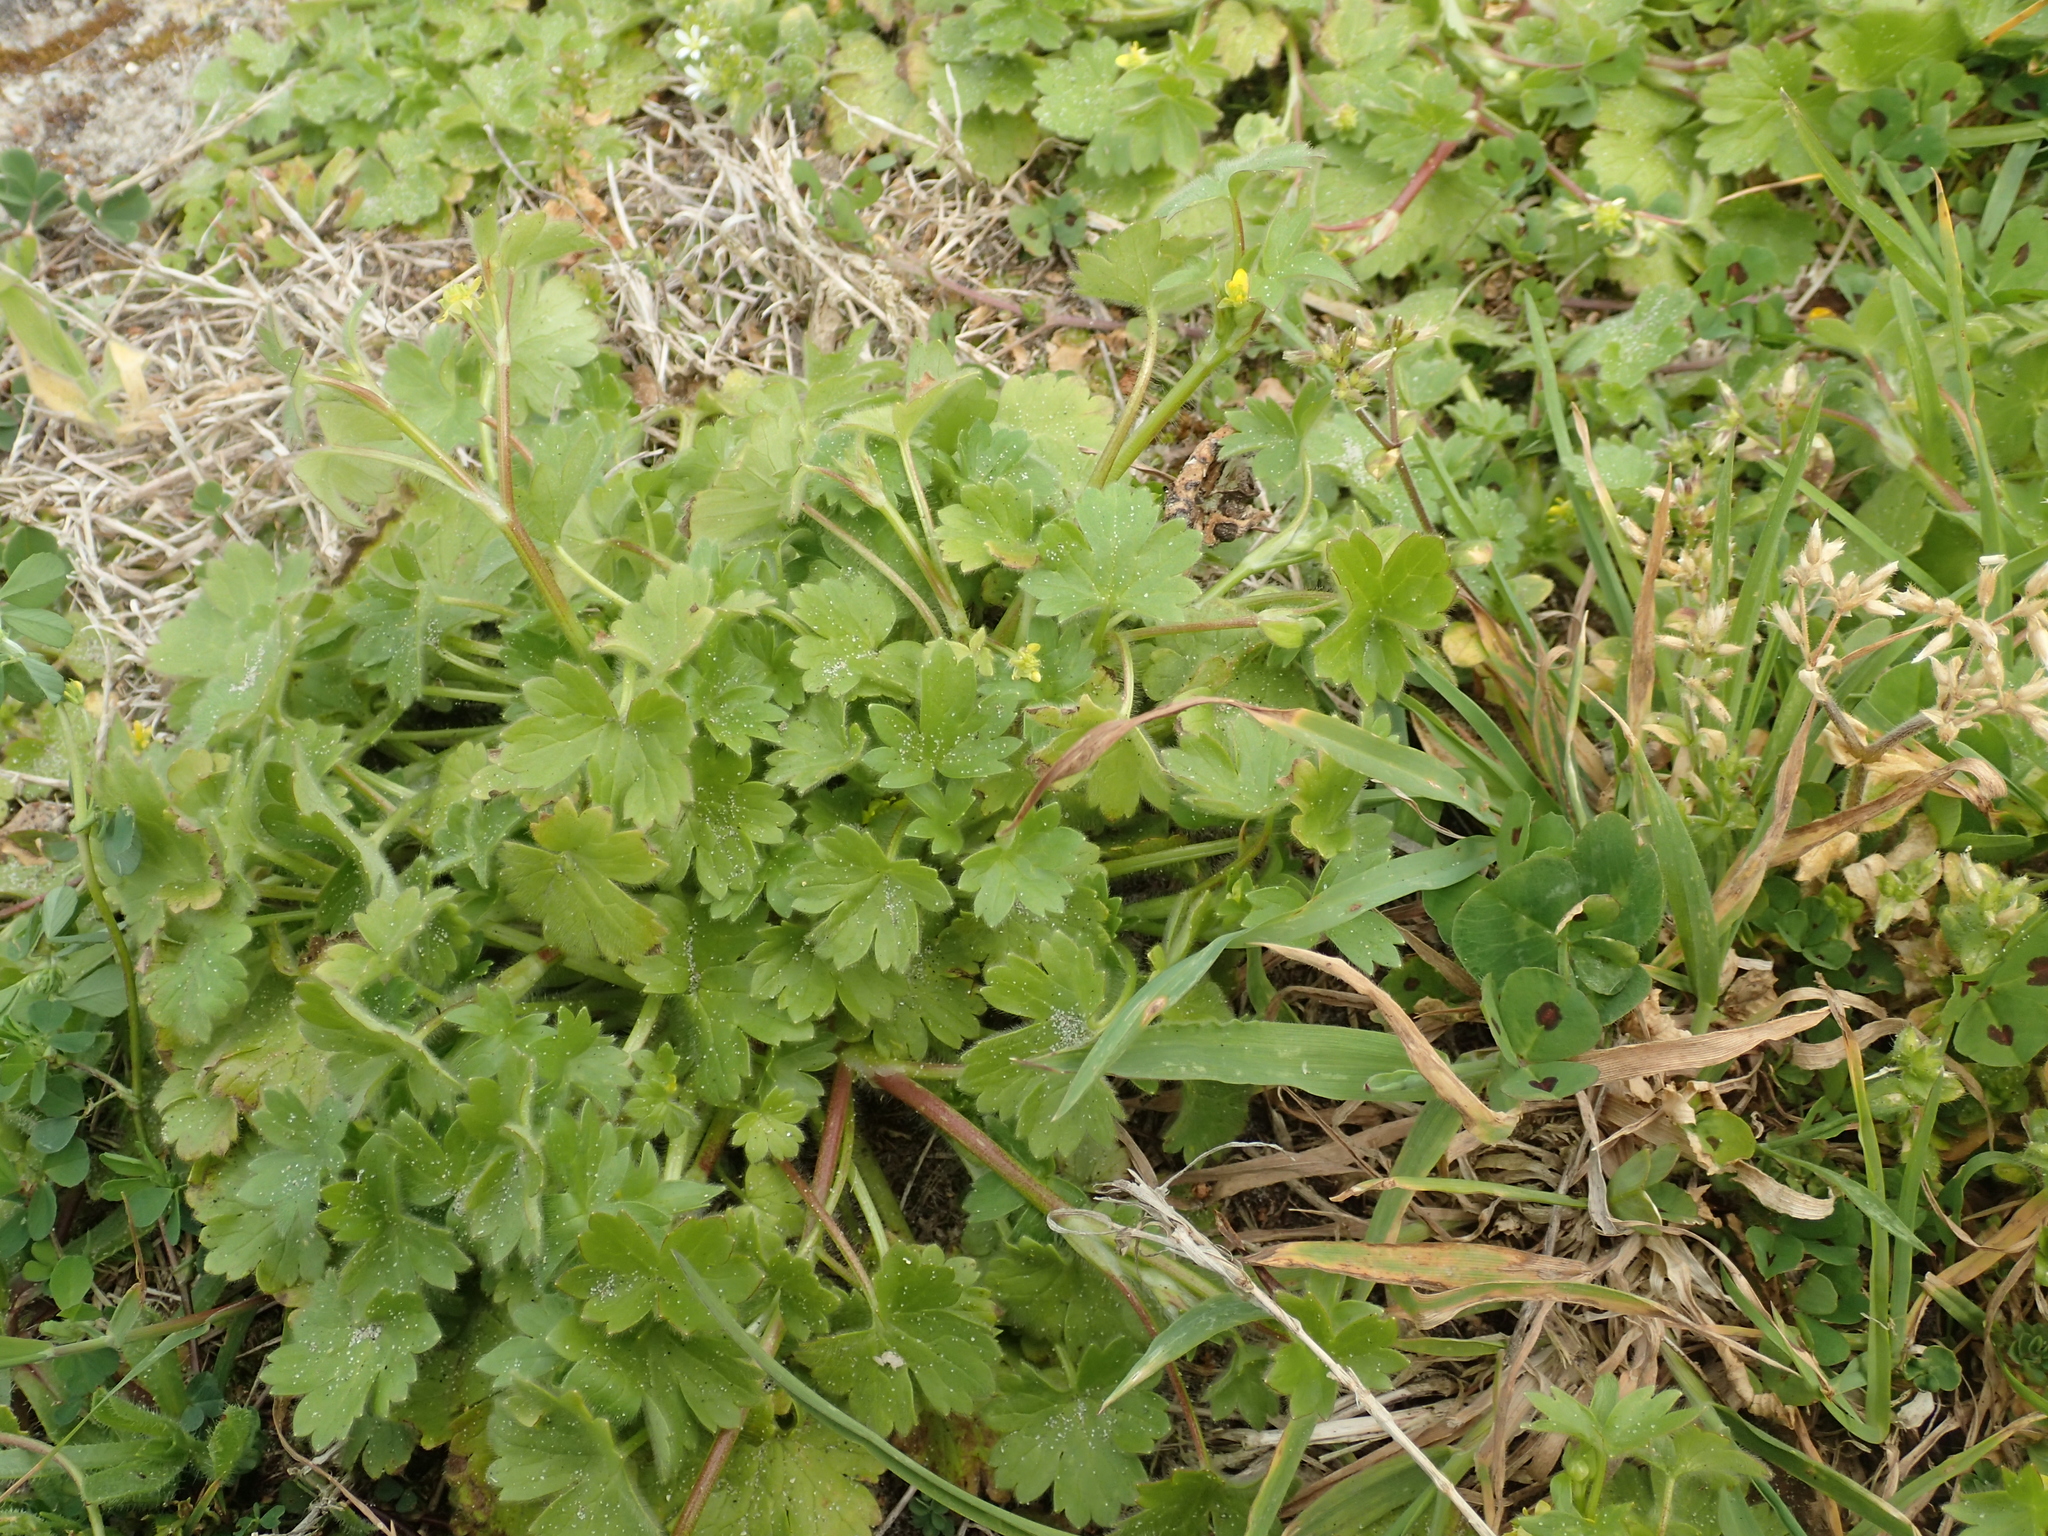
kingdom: Plantae
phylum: Tracheophyta
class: Magnoliopsida
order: Ranunculales
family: Ranunculaceae
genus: Ranunculus
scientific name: Ranunculus parviflorus
